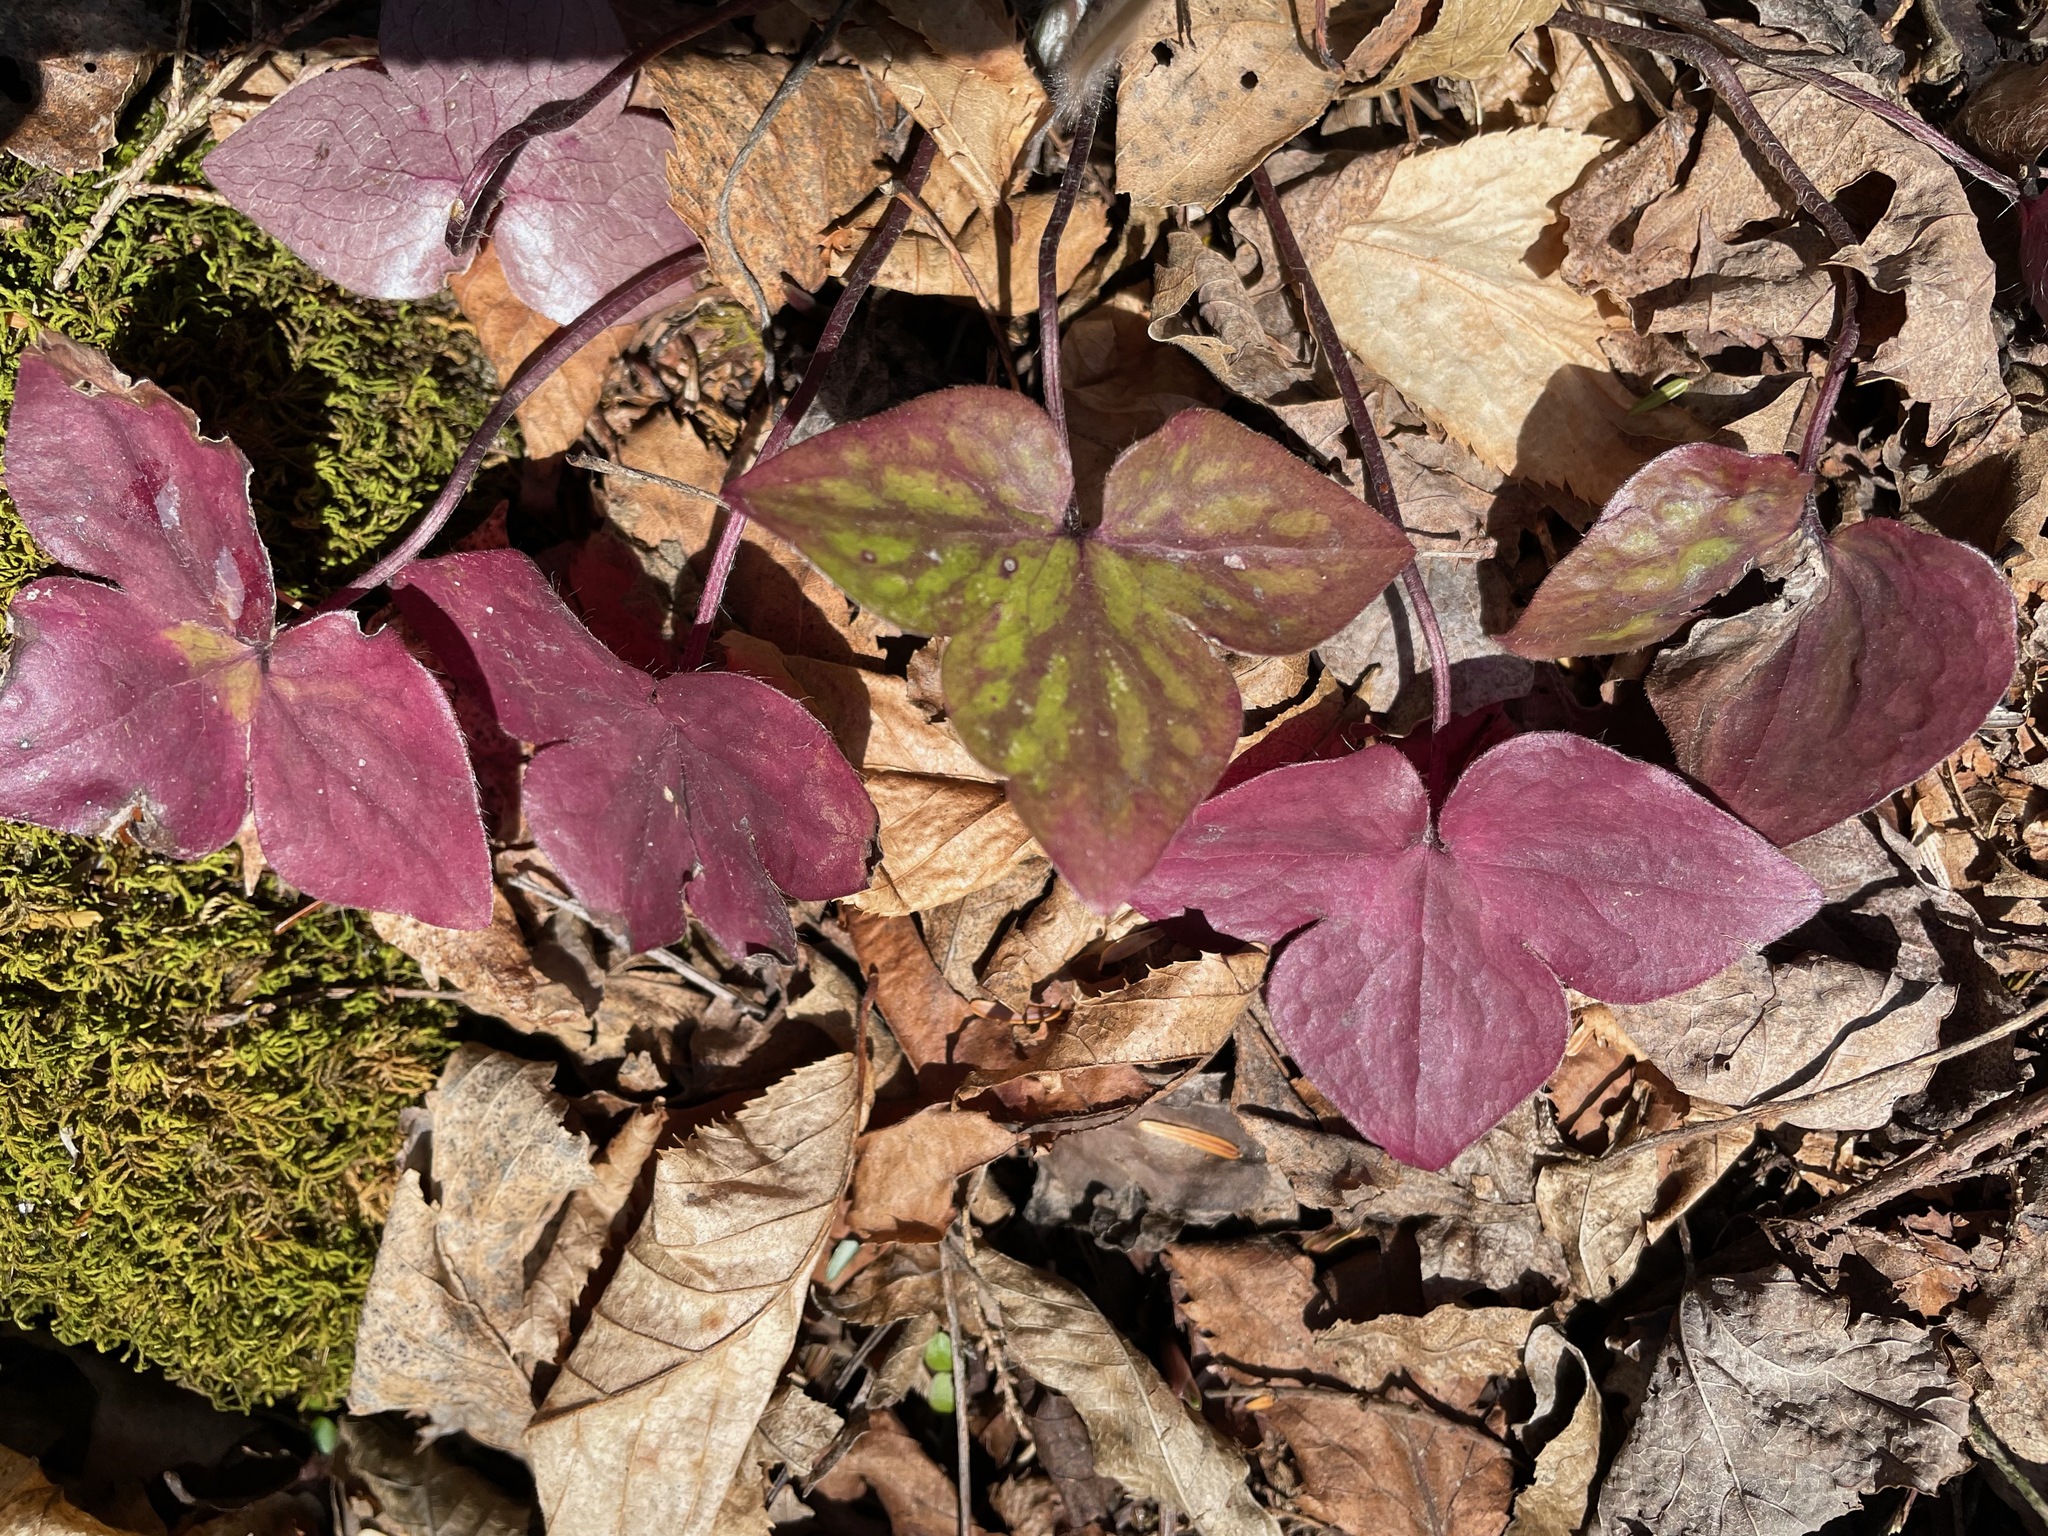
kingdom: Plantae
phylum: Tracheophyta
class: Magnoliopsida
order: Ranunculales
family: Ranunculaceae
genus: Hepatica
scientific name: Hepatica acutiloba
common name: Sharp-lobed hepatica
